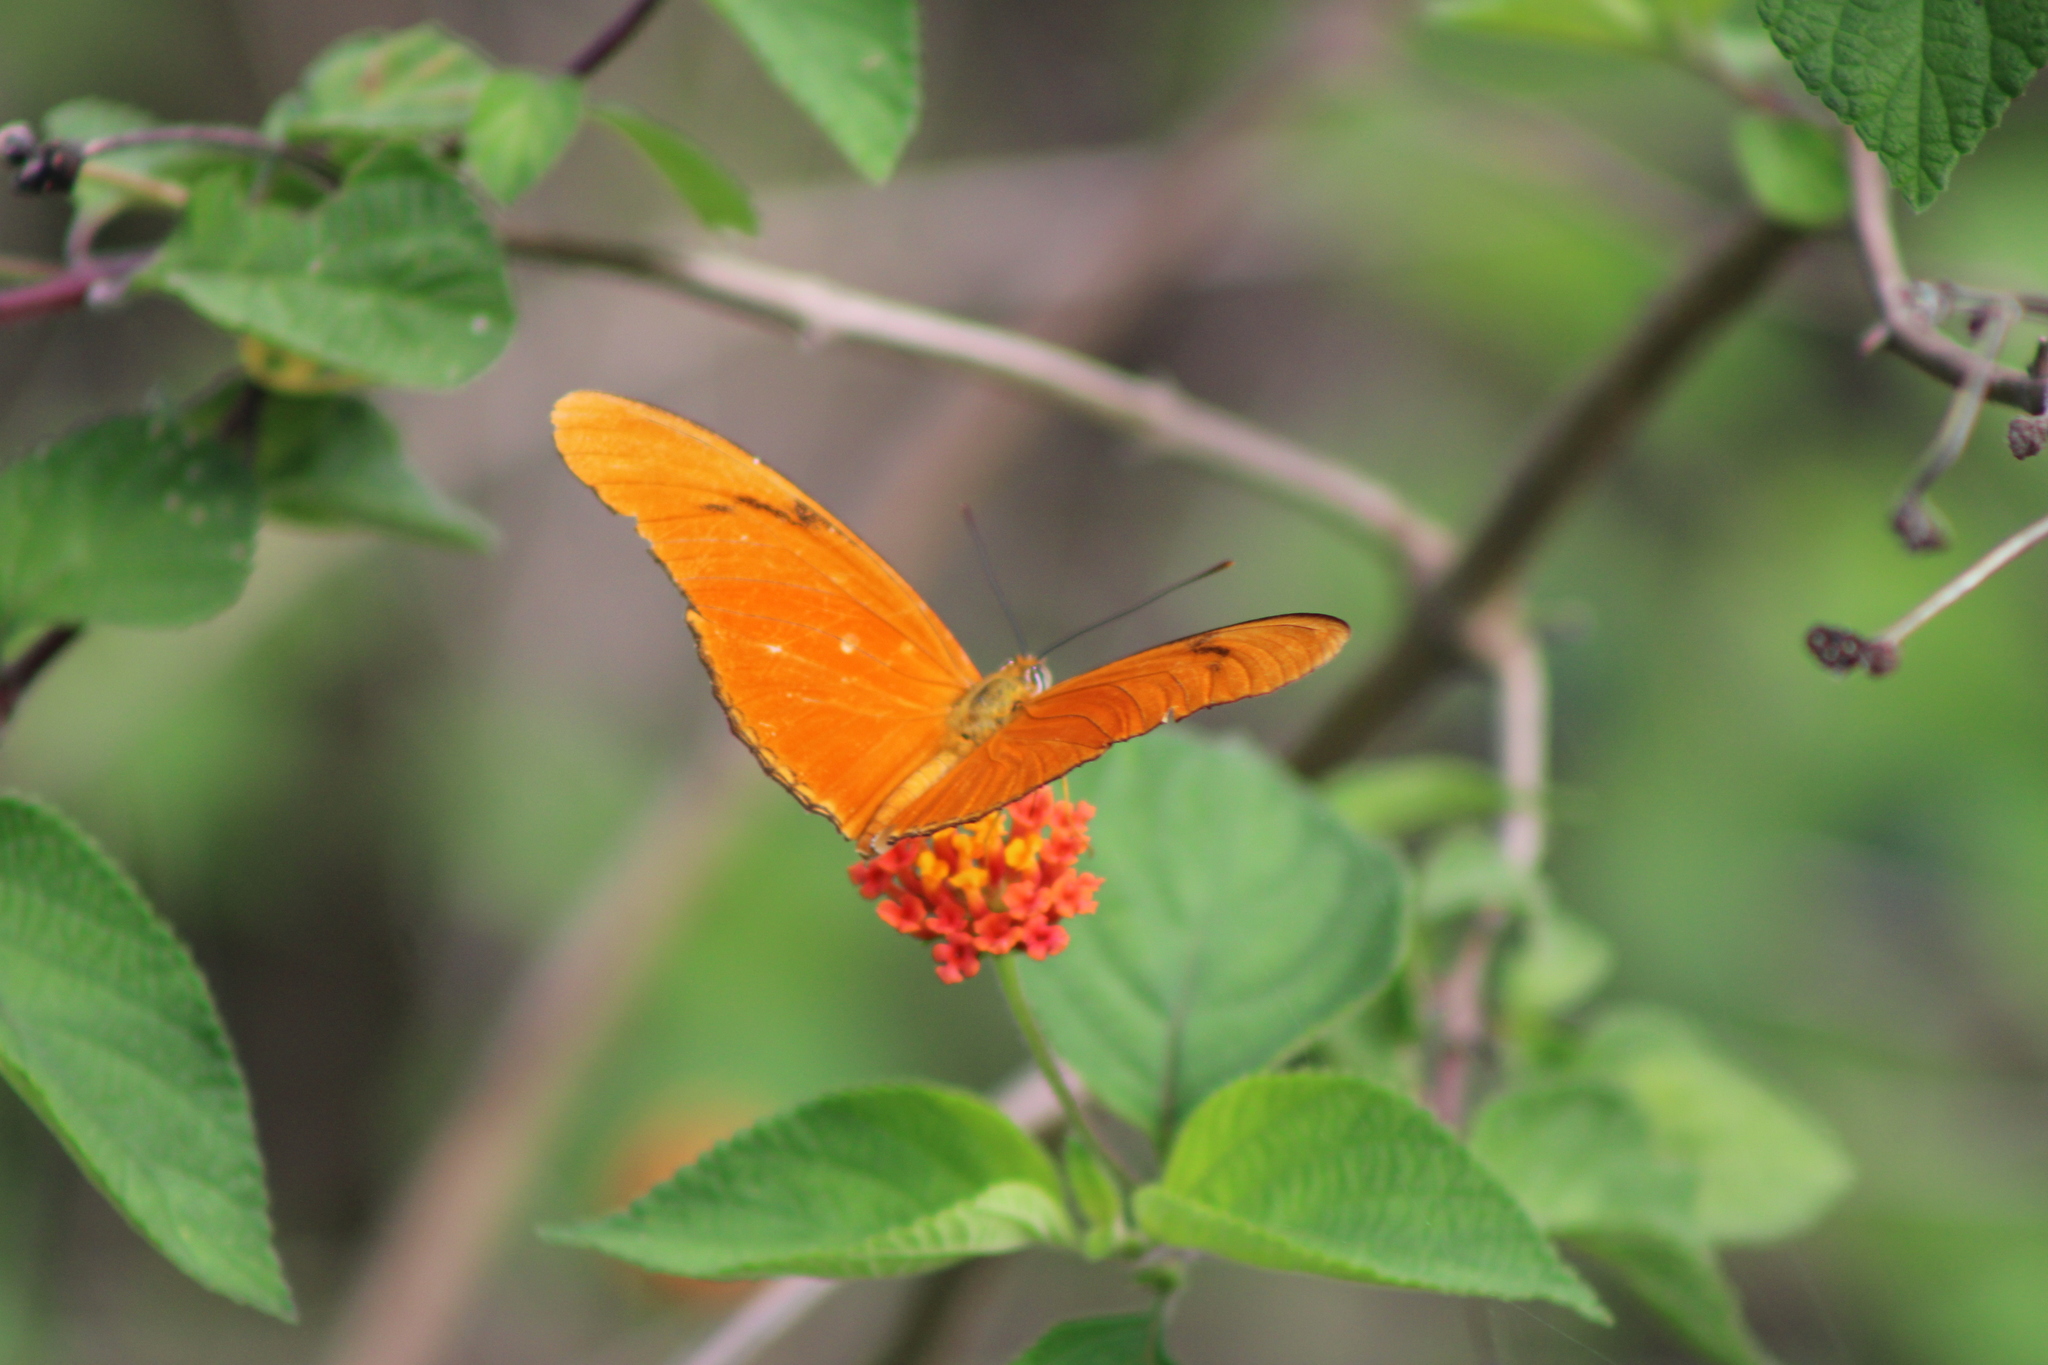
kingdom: Animalia
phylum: Arthropoda
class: Insecta
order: Lepidoptera
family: Nymphalidae
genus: Dryas
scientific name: Dryas iulia
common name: Flambeau
